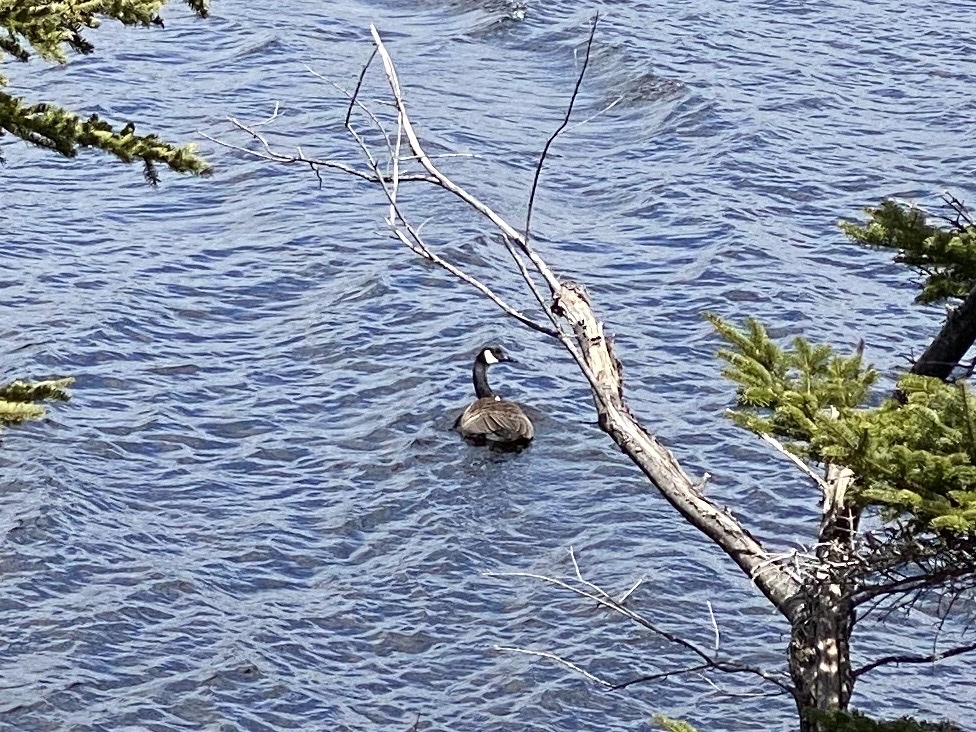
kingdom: Animalia
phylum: Chordata
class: Aves
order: Anseriformes
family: Anatidae
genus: Branta
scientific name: Branta canadensis
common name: Canada goose
